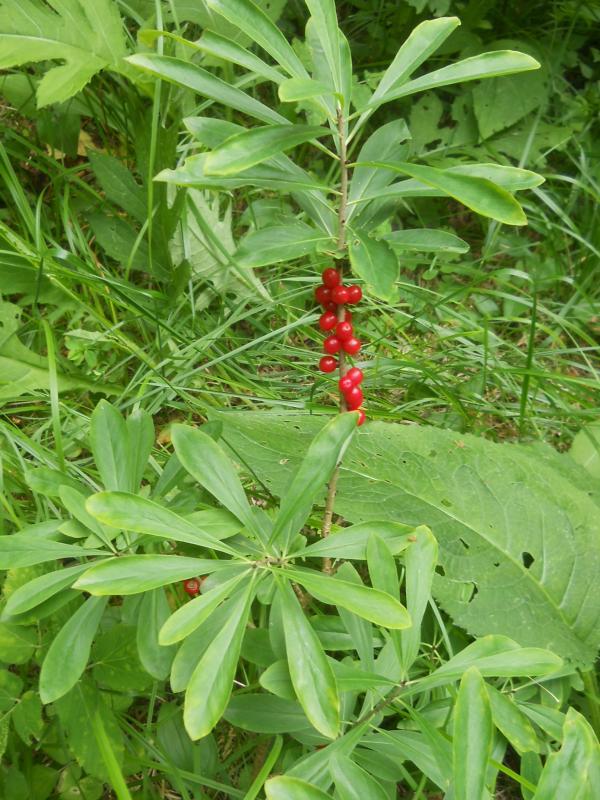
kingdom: Plantae
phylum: Tracheophyta
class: Magnoliopsida
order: Malvales
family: Thymelaeaceae
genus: Daphne
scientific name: Daphne mezereum
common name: Mezereon
